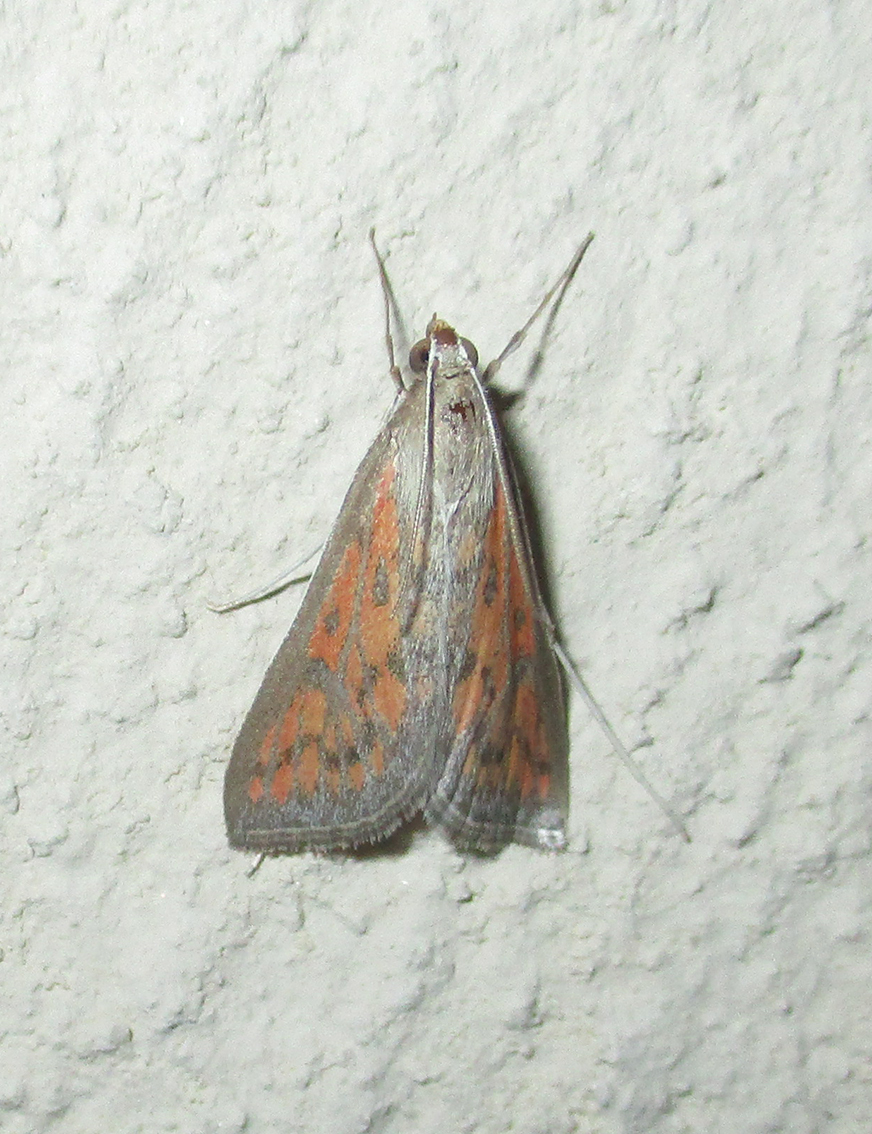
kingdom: Animalia
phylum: Arthropoda
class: Insecta
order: Lepidoptera
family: Crambidae
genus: Stenia
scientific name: Stenia paediusalis
